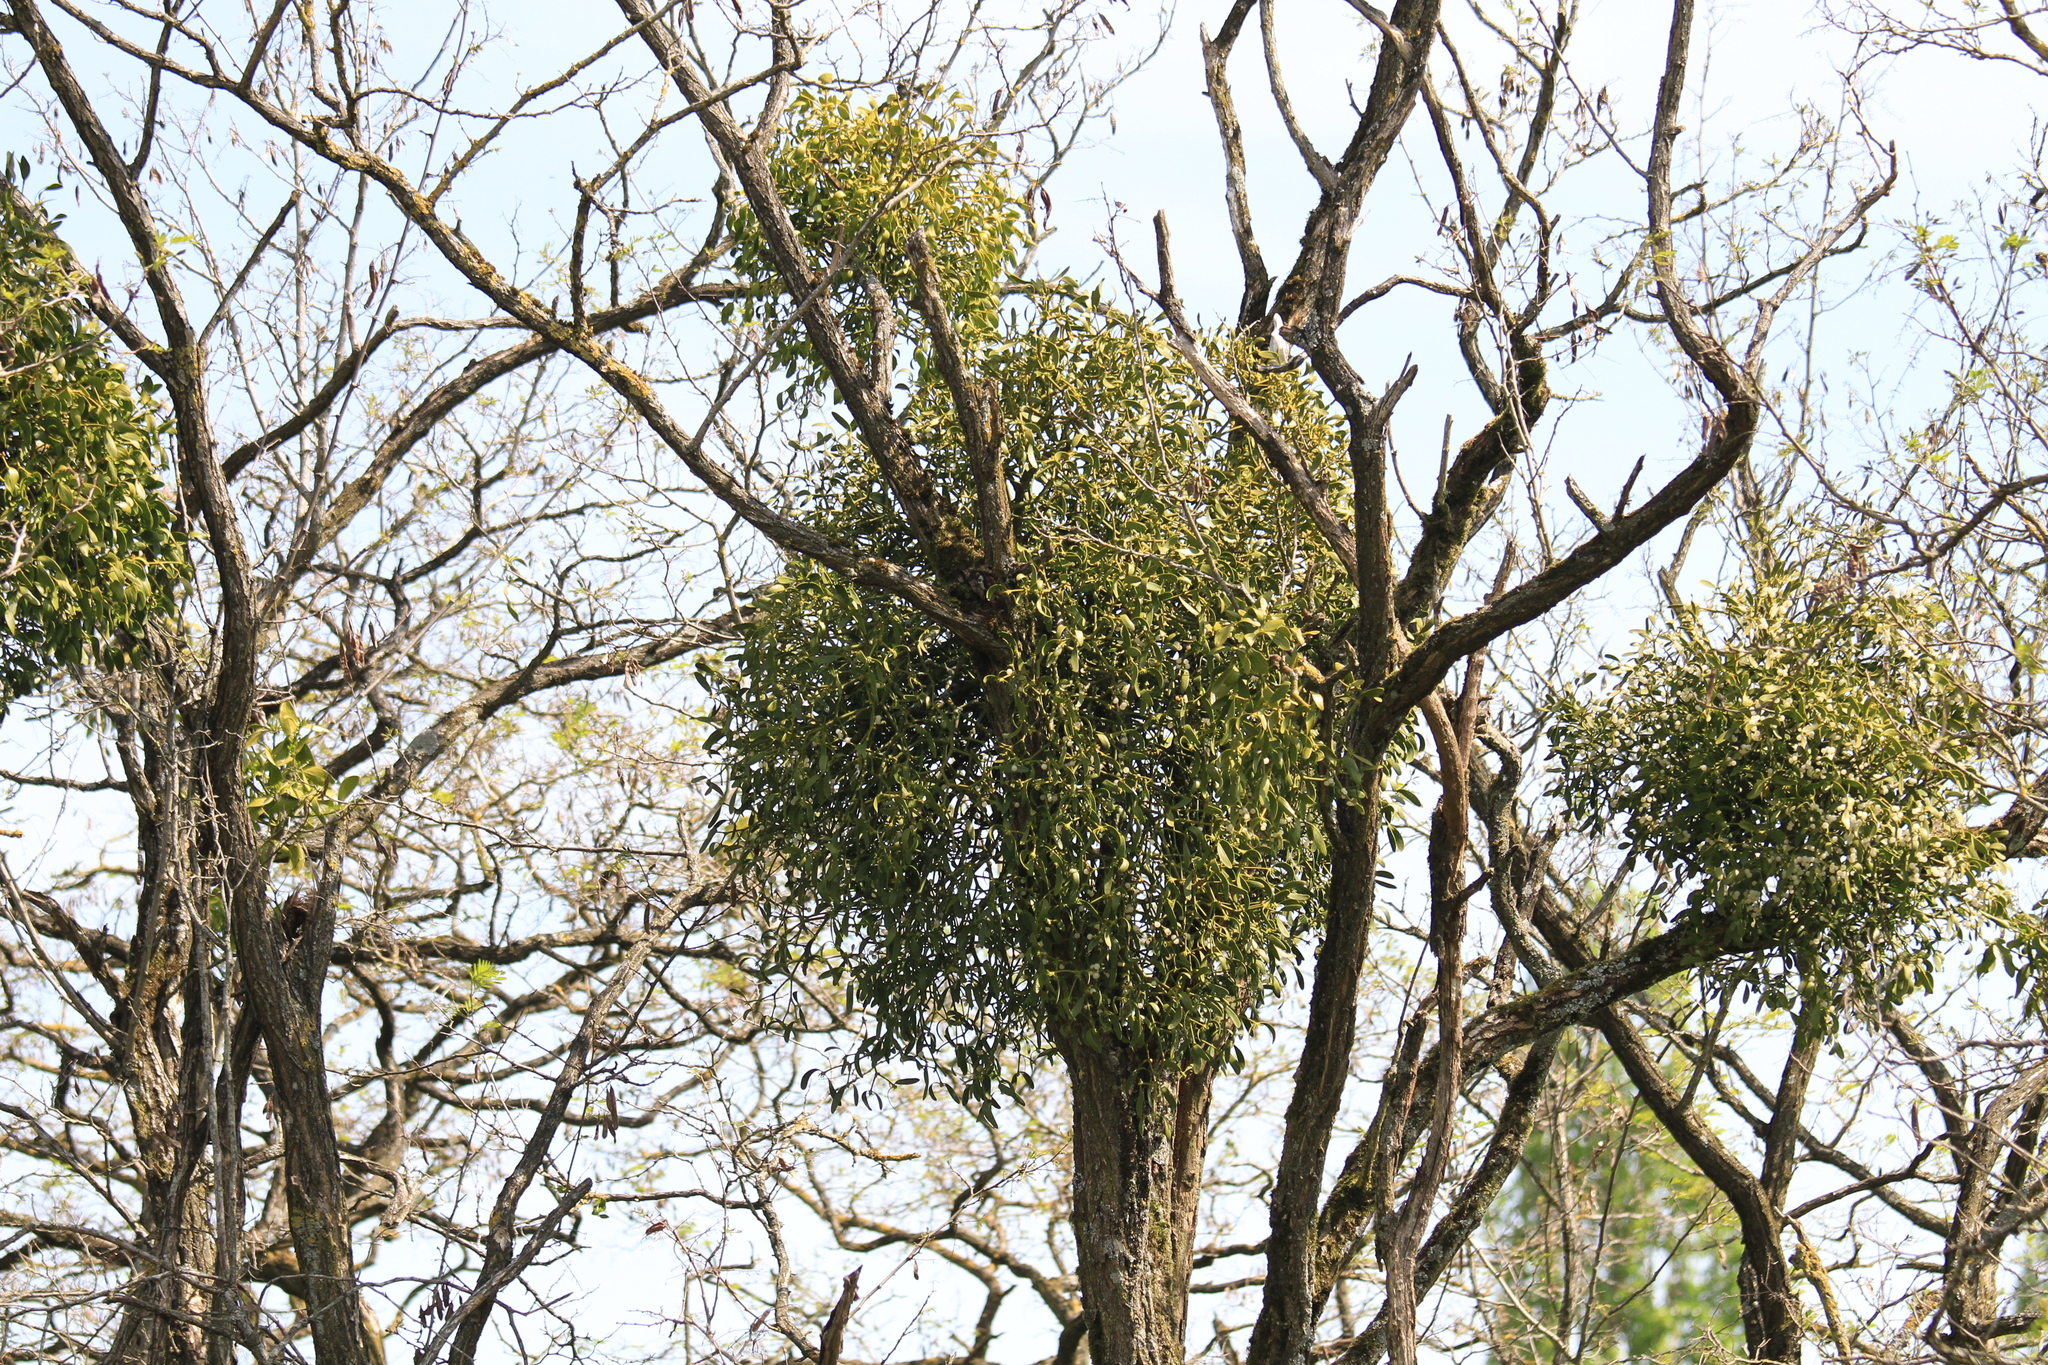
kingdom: Plantae
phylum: Tracheophyta
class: Magnoliopsida
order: Santalales
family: Viscaceae
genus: Viscum
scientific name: Viscum album
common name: Mistletoe
